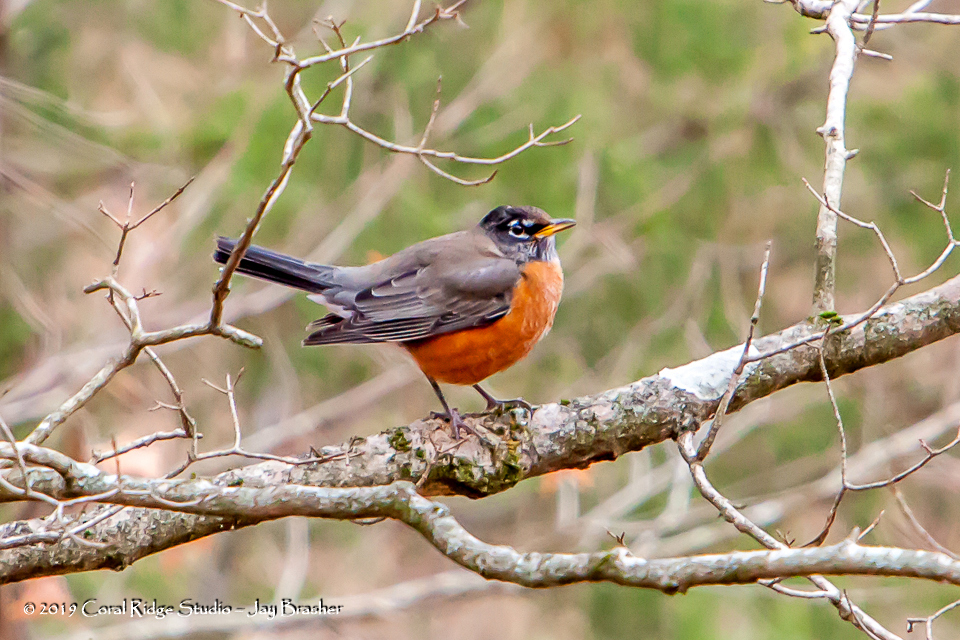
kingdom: Animalia
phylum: Chordata
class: Aves
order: Passeriformes
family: Turdidae
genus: Turdus
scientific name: Turdus migratorius
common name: American robin
